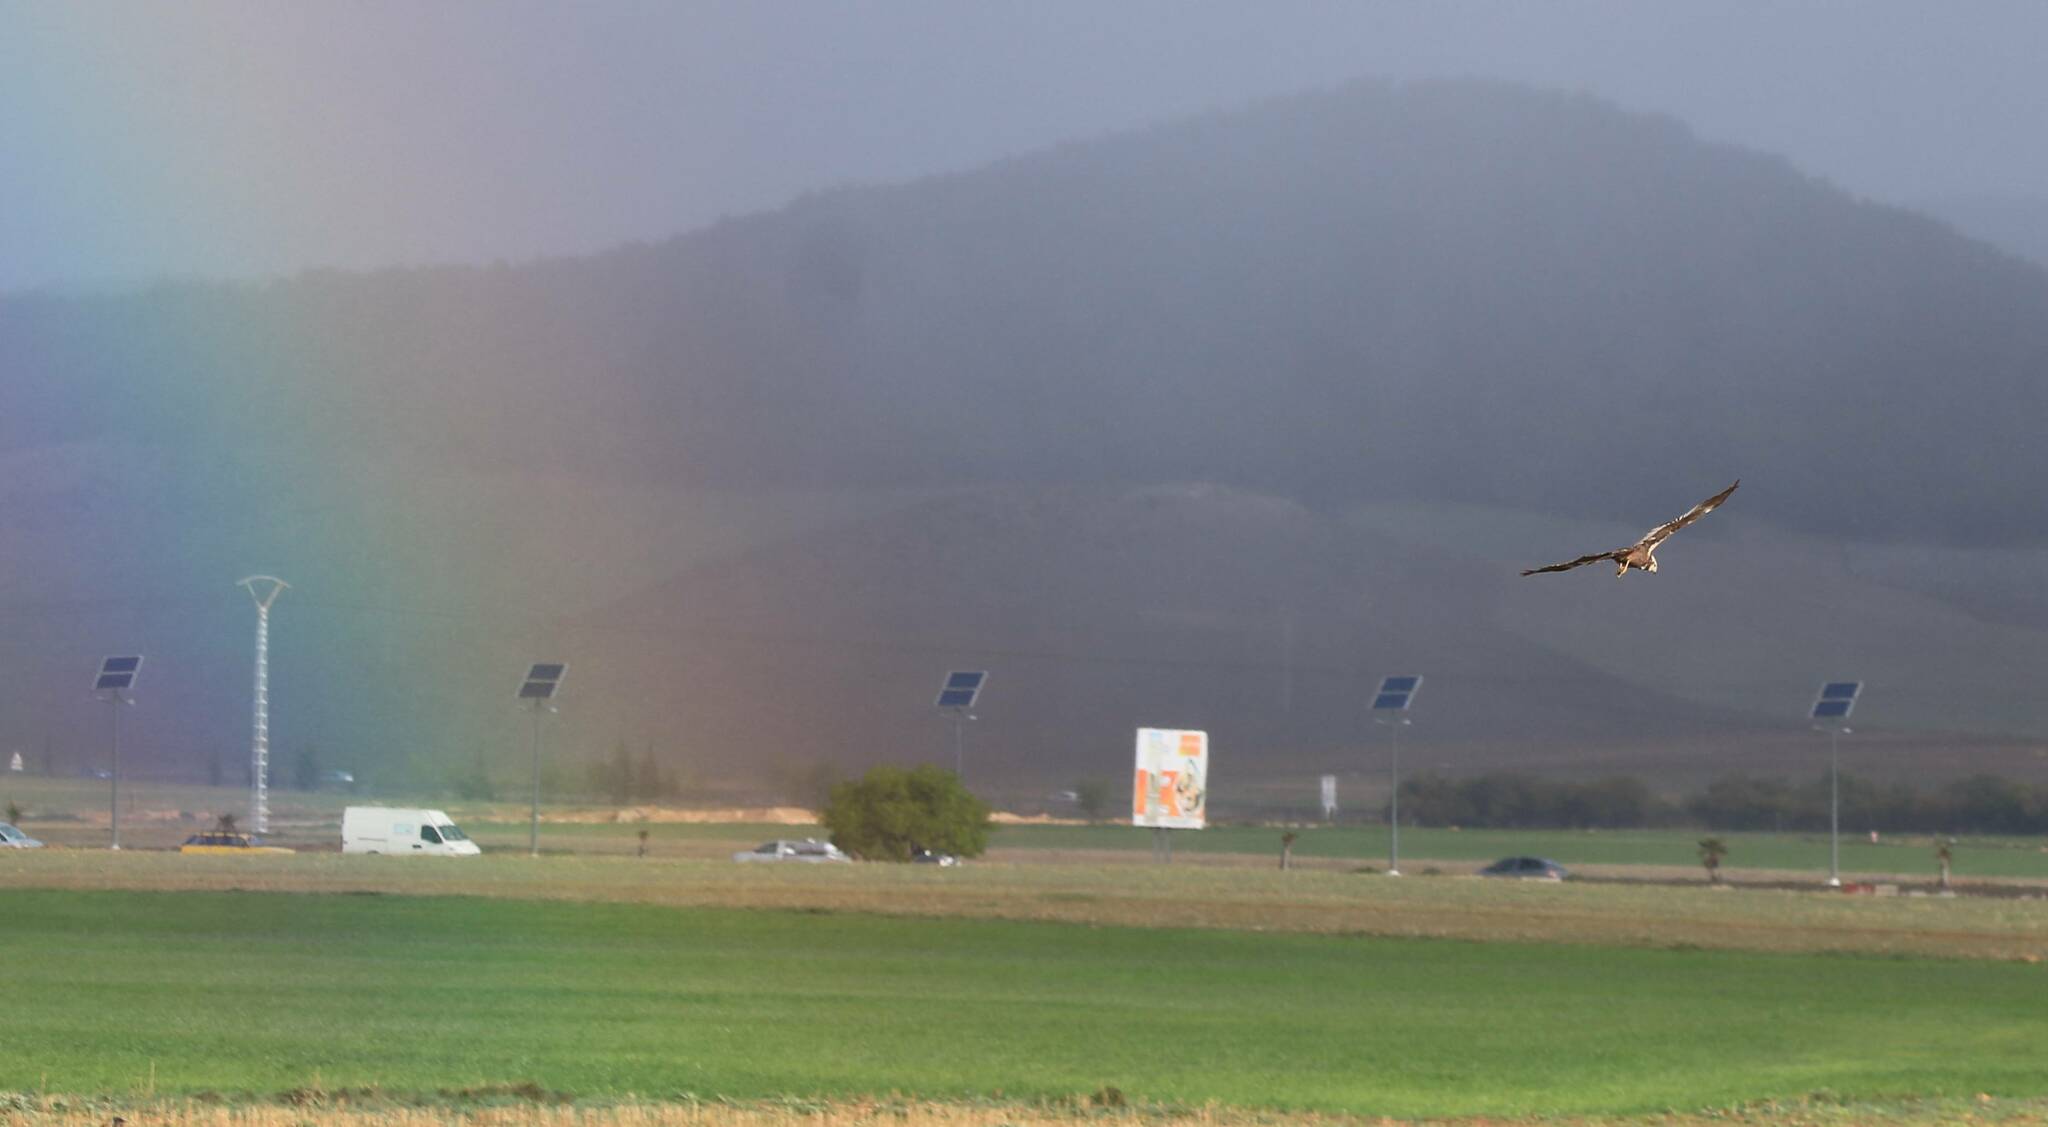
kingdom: Animalia
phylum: Chordata
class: Aves
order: Accipitriformes
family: Accipitridae
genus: Circus
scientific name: Circus aeruginosus
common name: Western marsh harrier
